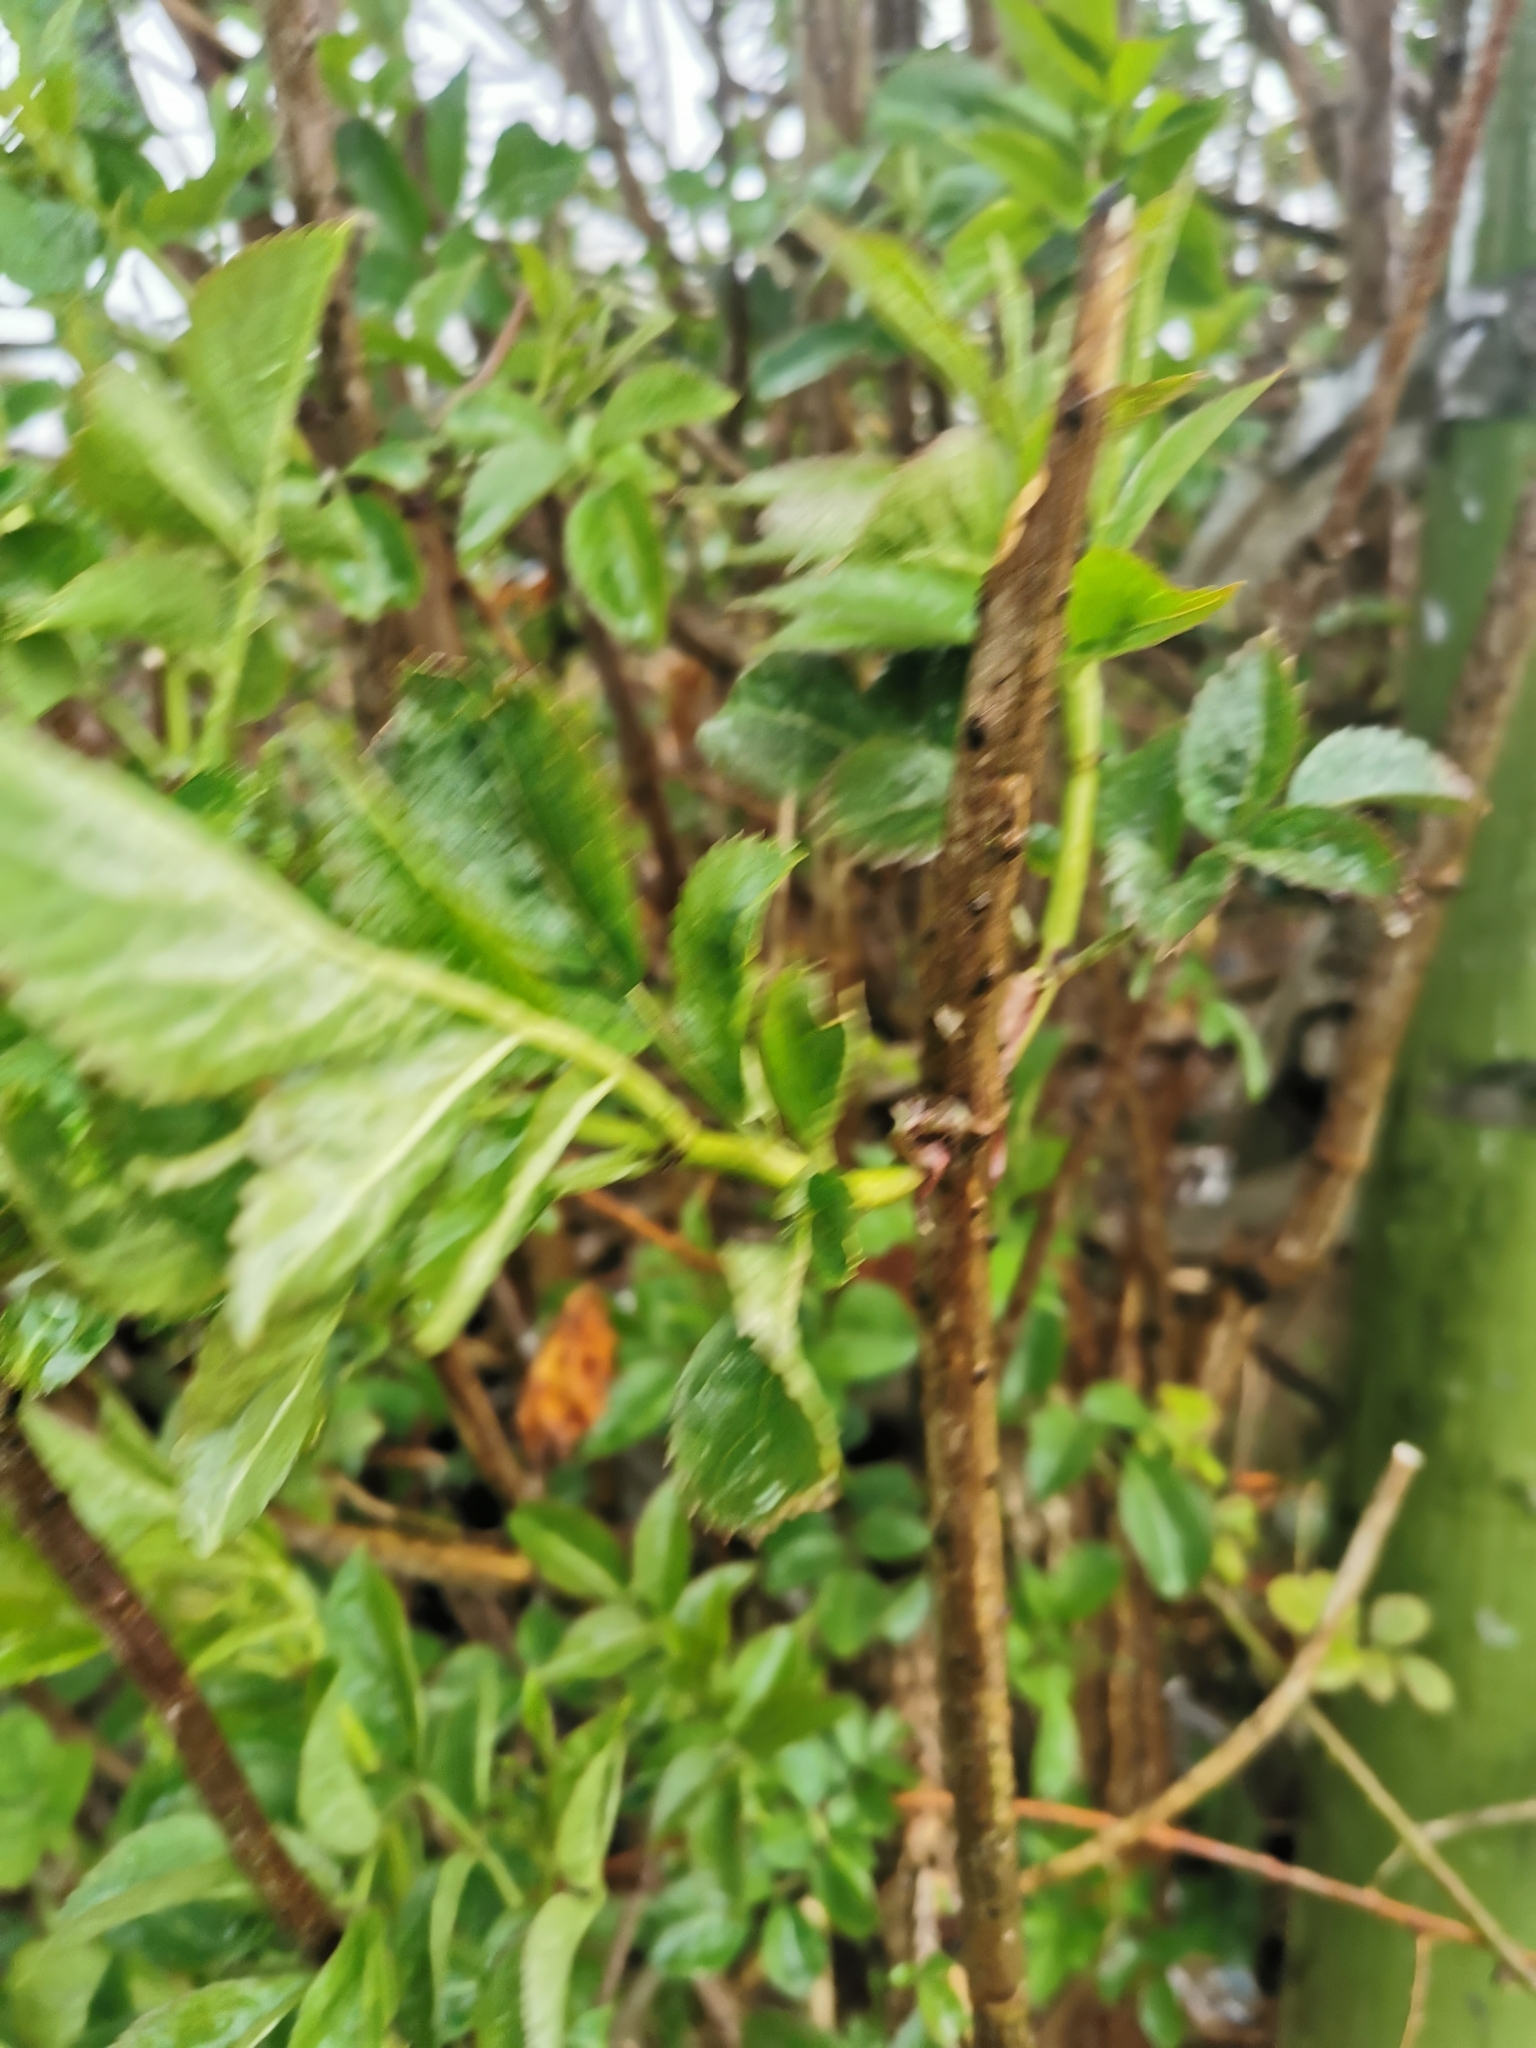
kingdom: Plantae
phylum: Tracheophyta
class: Magnoliopsida
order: Dipsacales
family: Viburnaceae
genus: Sambucus
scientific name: Sambucus nigra
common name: Elder
